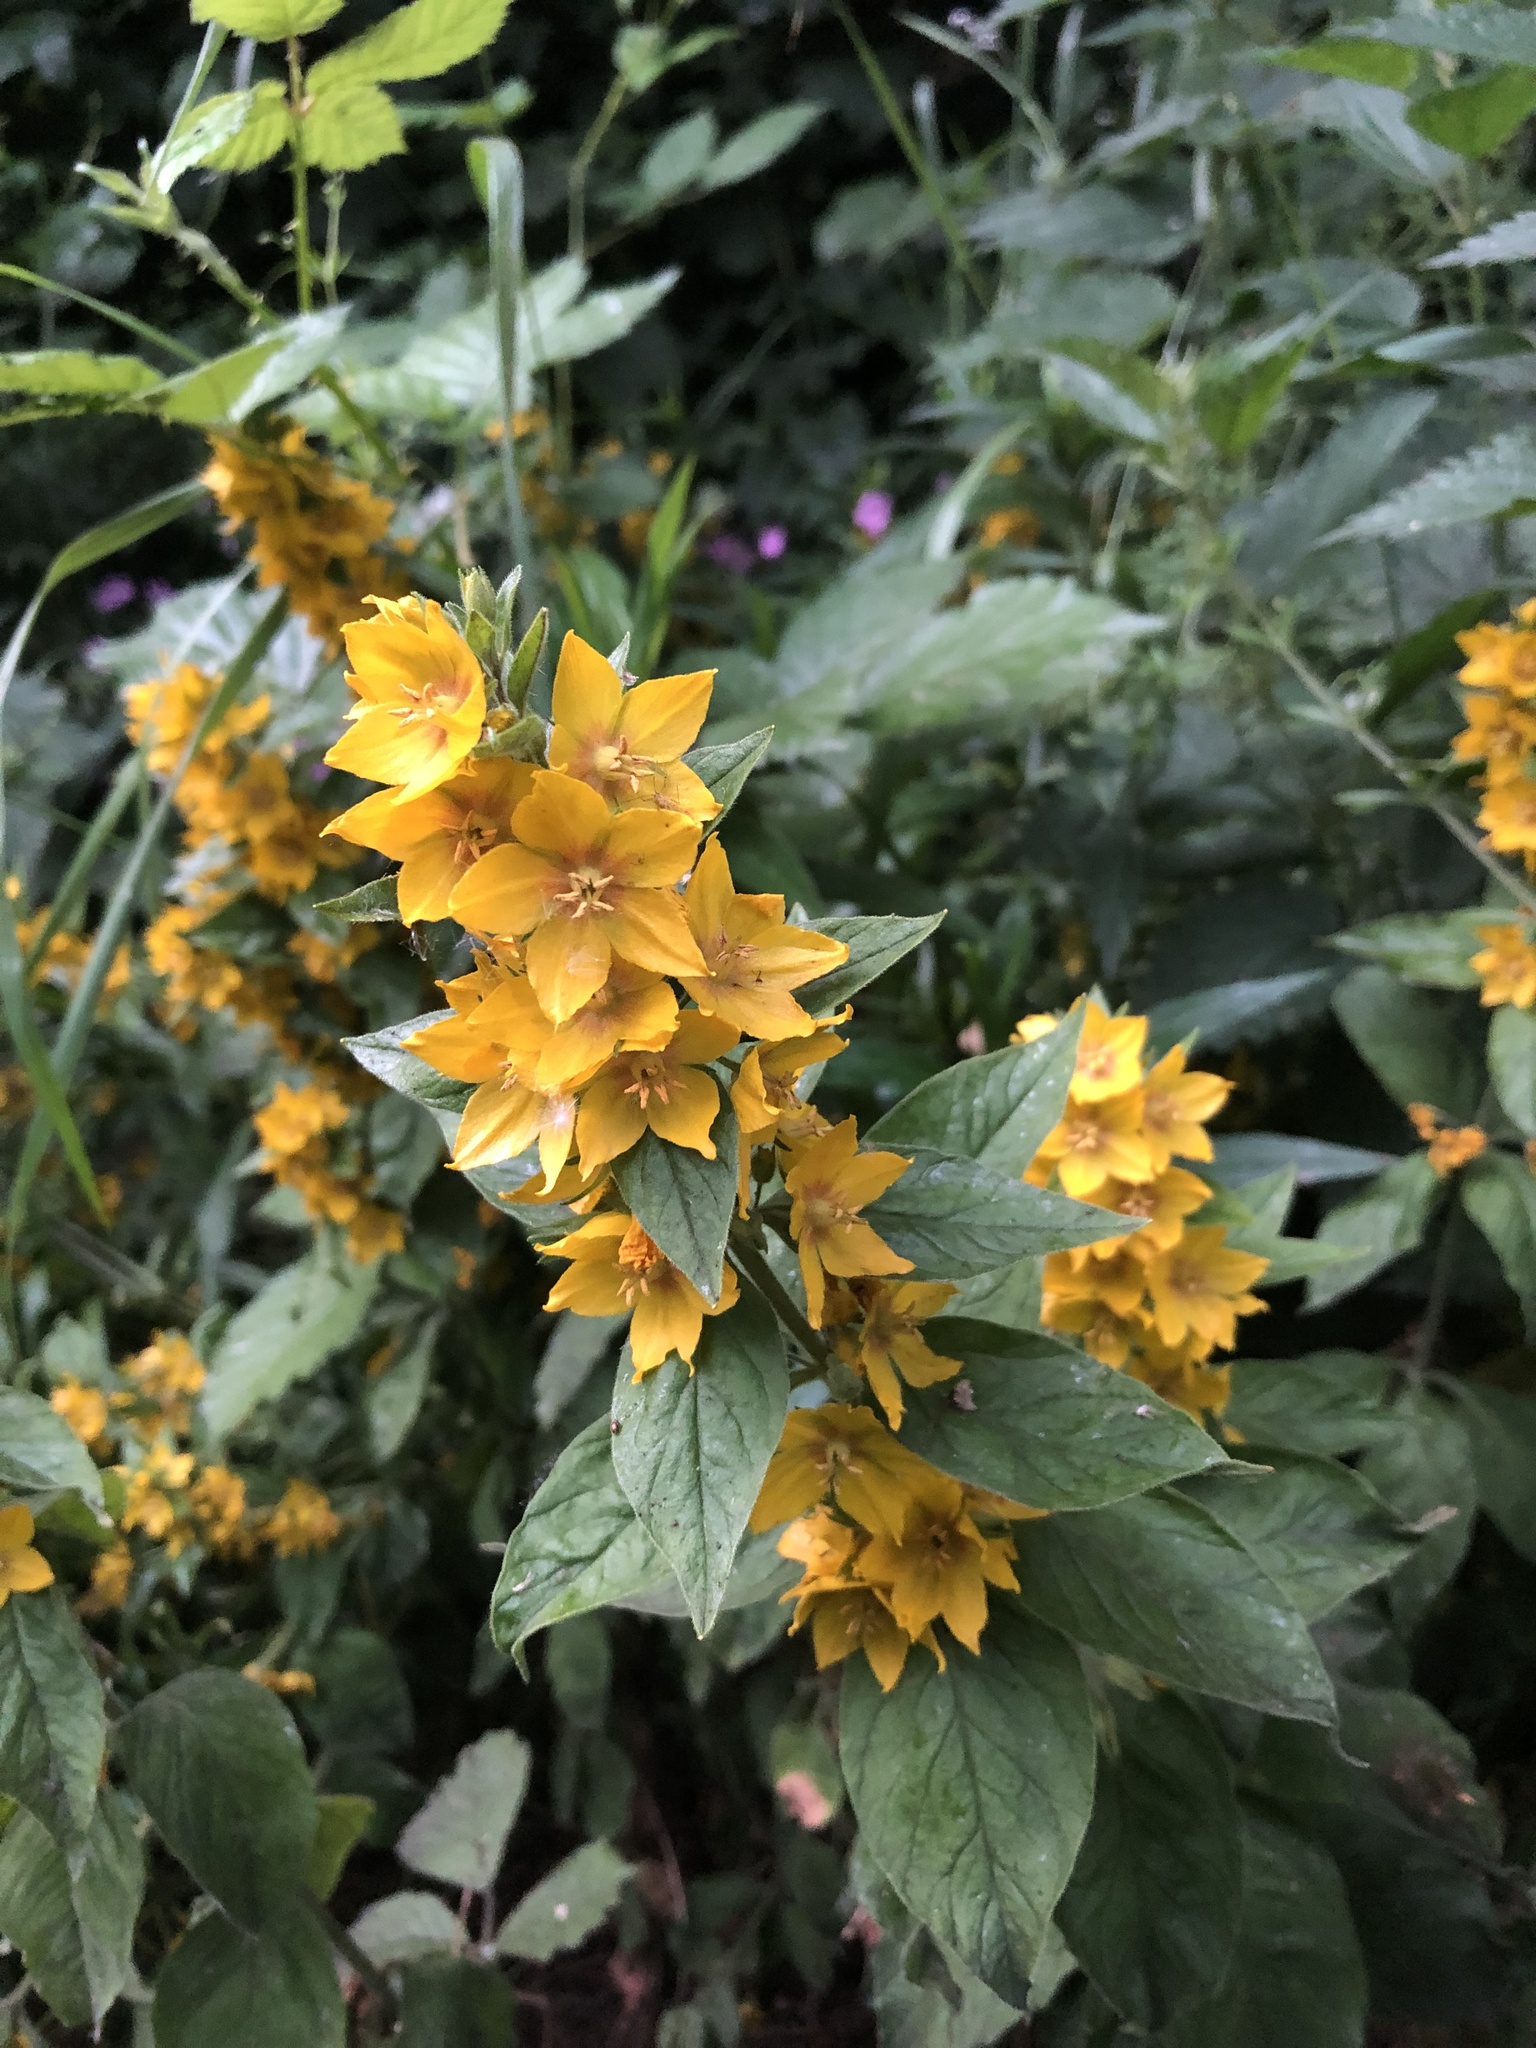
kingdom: Plantae
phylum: Tracheophyta
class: Magnoliopsida
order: Ericales
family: Primulaceae
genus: Lysimachia
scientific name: Lysimachia punctata
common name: Dotted loosestrife
